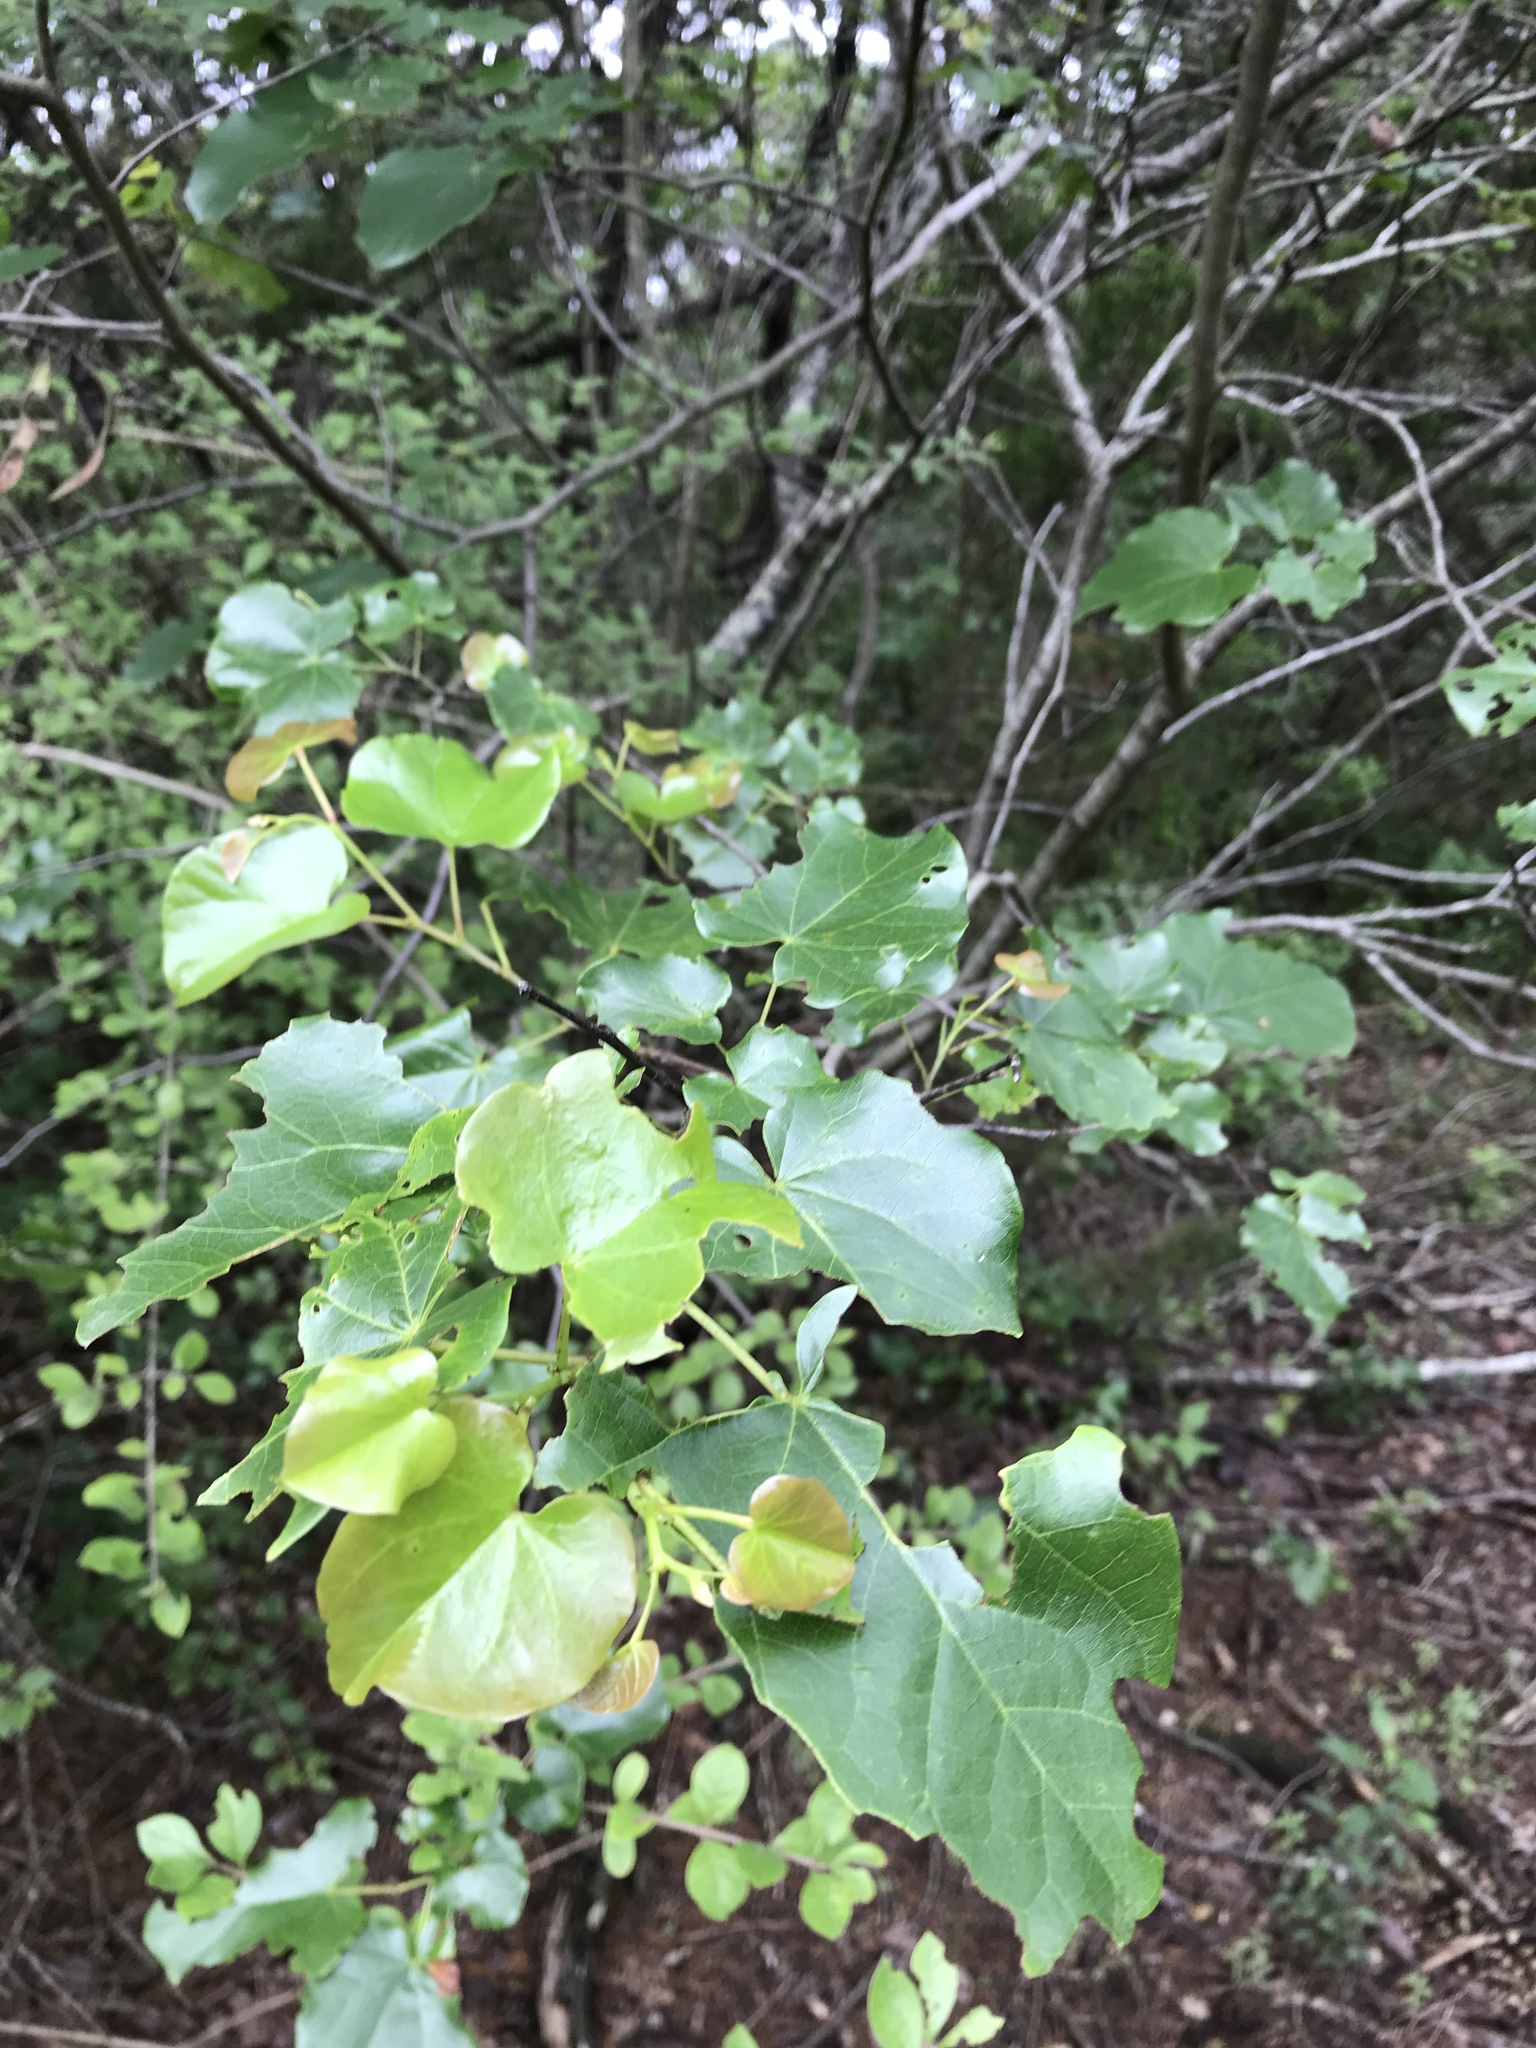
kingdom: Plantae
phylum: Tracheophyta
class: Magnoliopsida
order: Fabales
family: Fabaceae
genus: Cercis
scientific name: Cercis canadensis
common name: Eastern redbud
